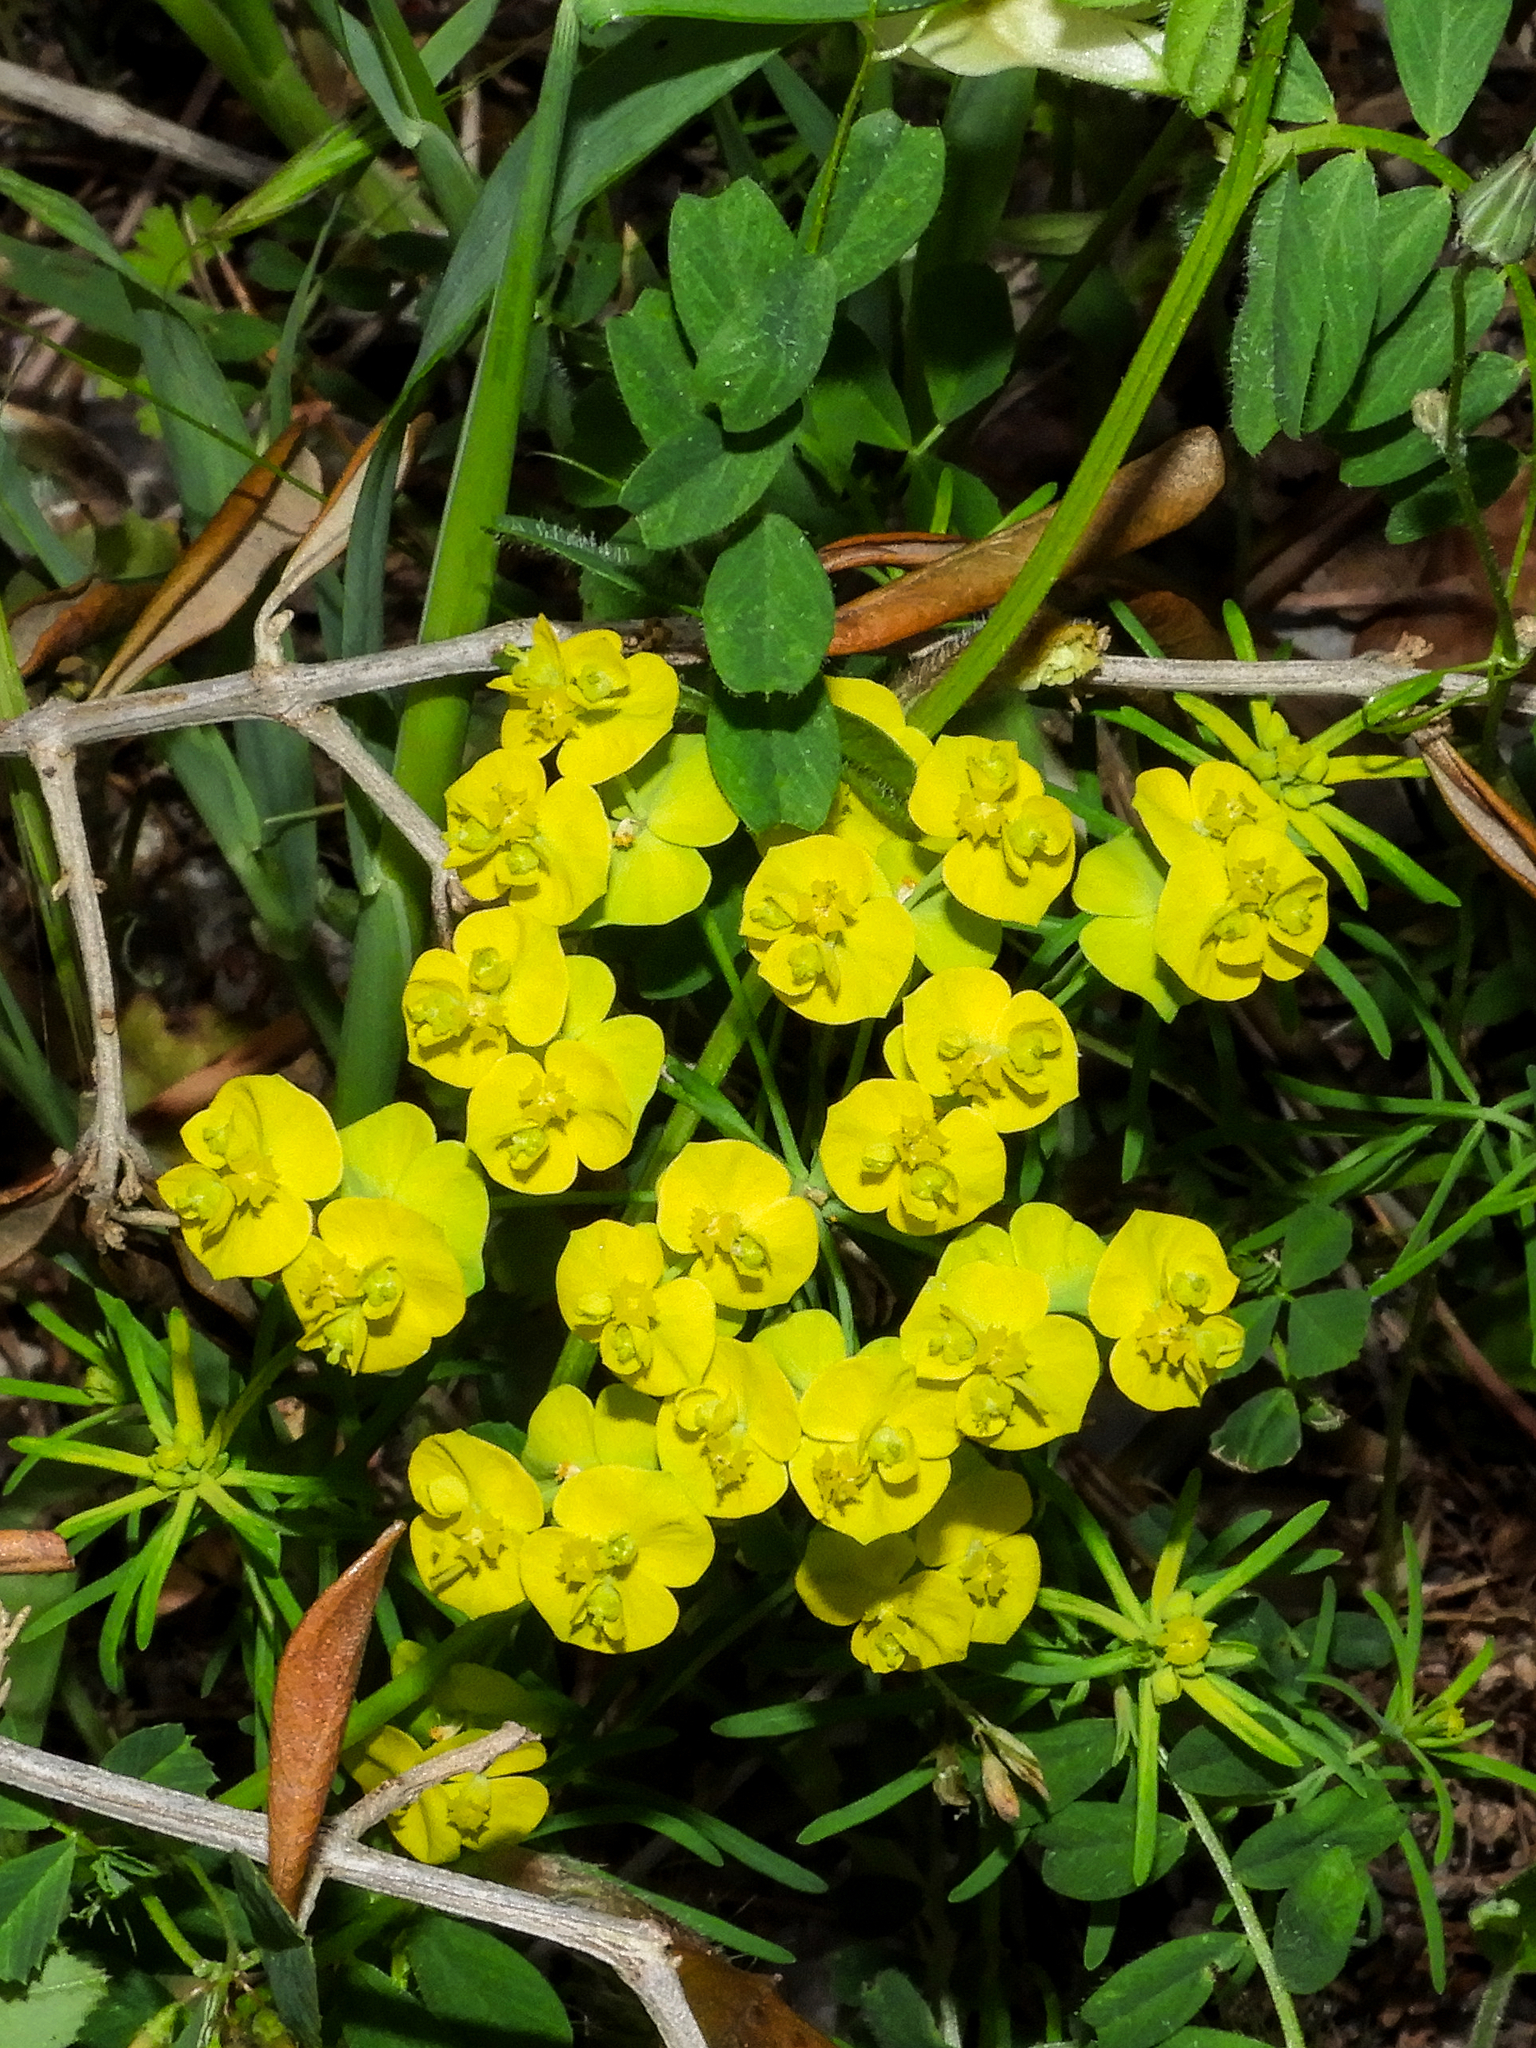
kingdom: Plantae
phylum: Tracheophyta
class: Magnoliopsida
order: Malpighiales
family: Euphorbiaceae
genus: Euphorbia
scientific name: Euphorbia cyparissias
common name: Cypress spurge
